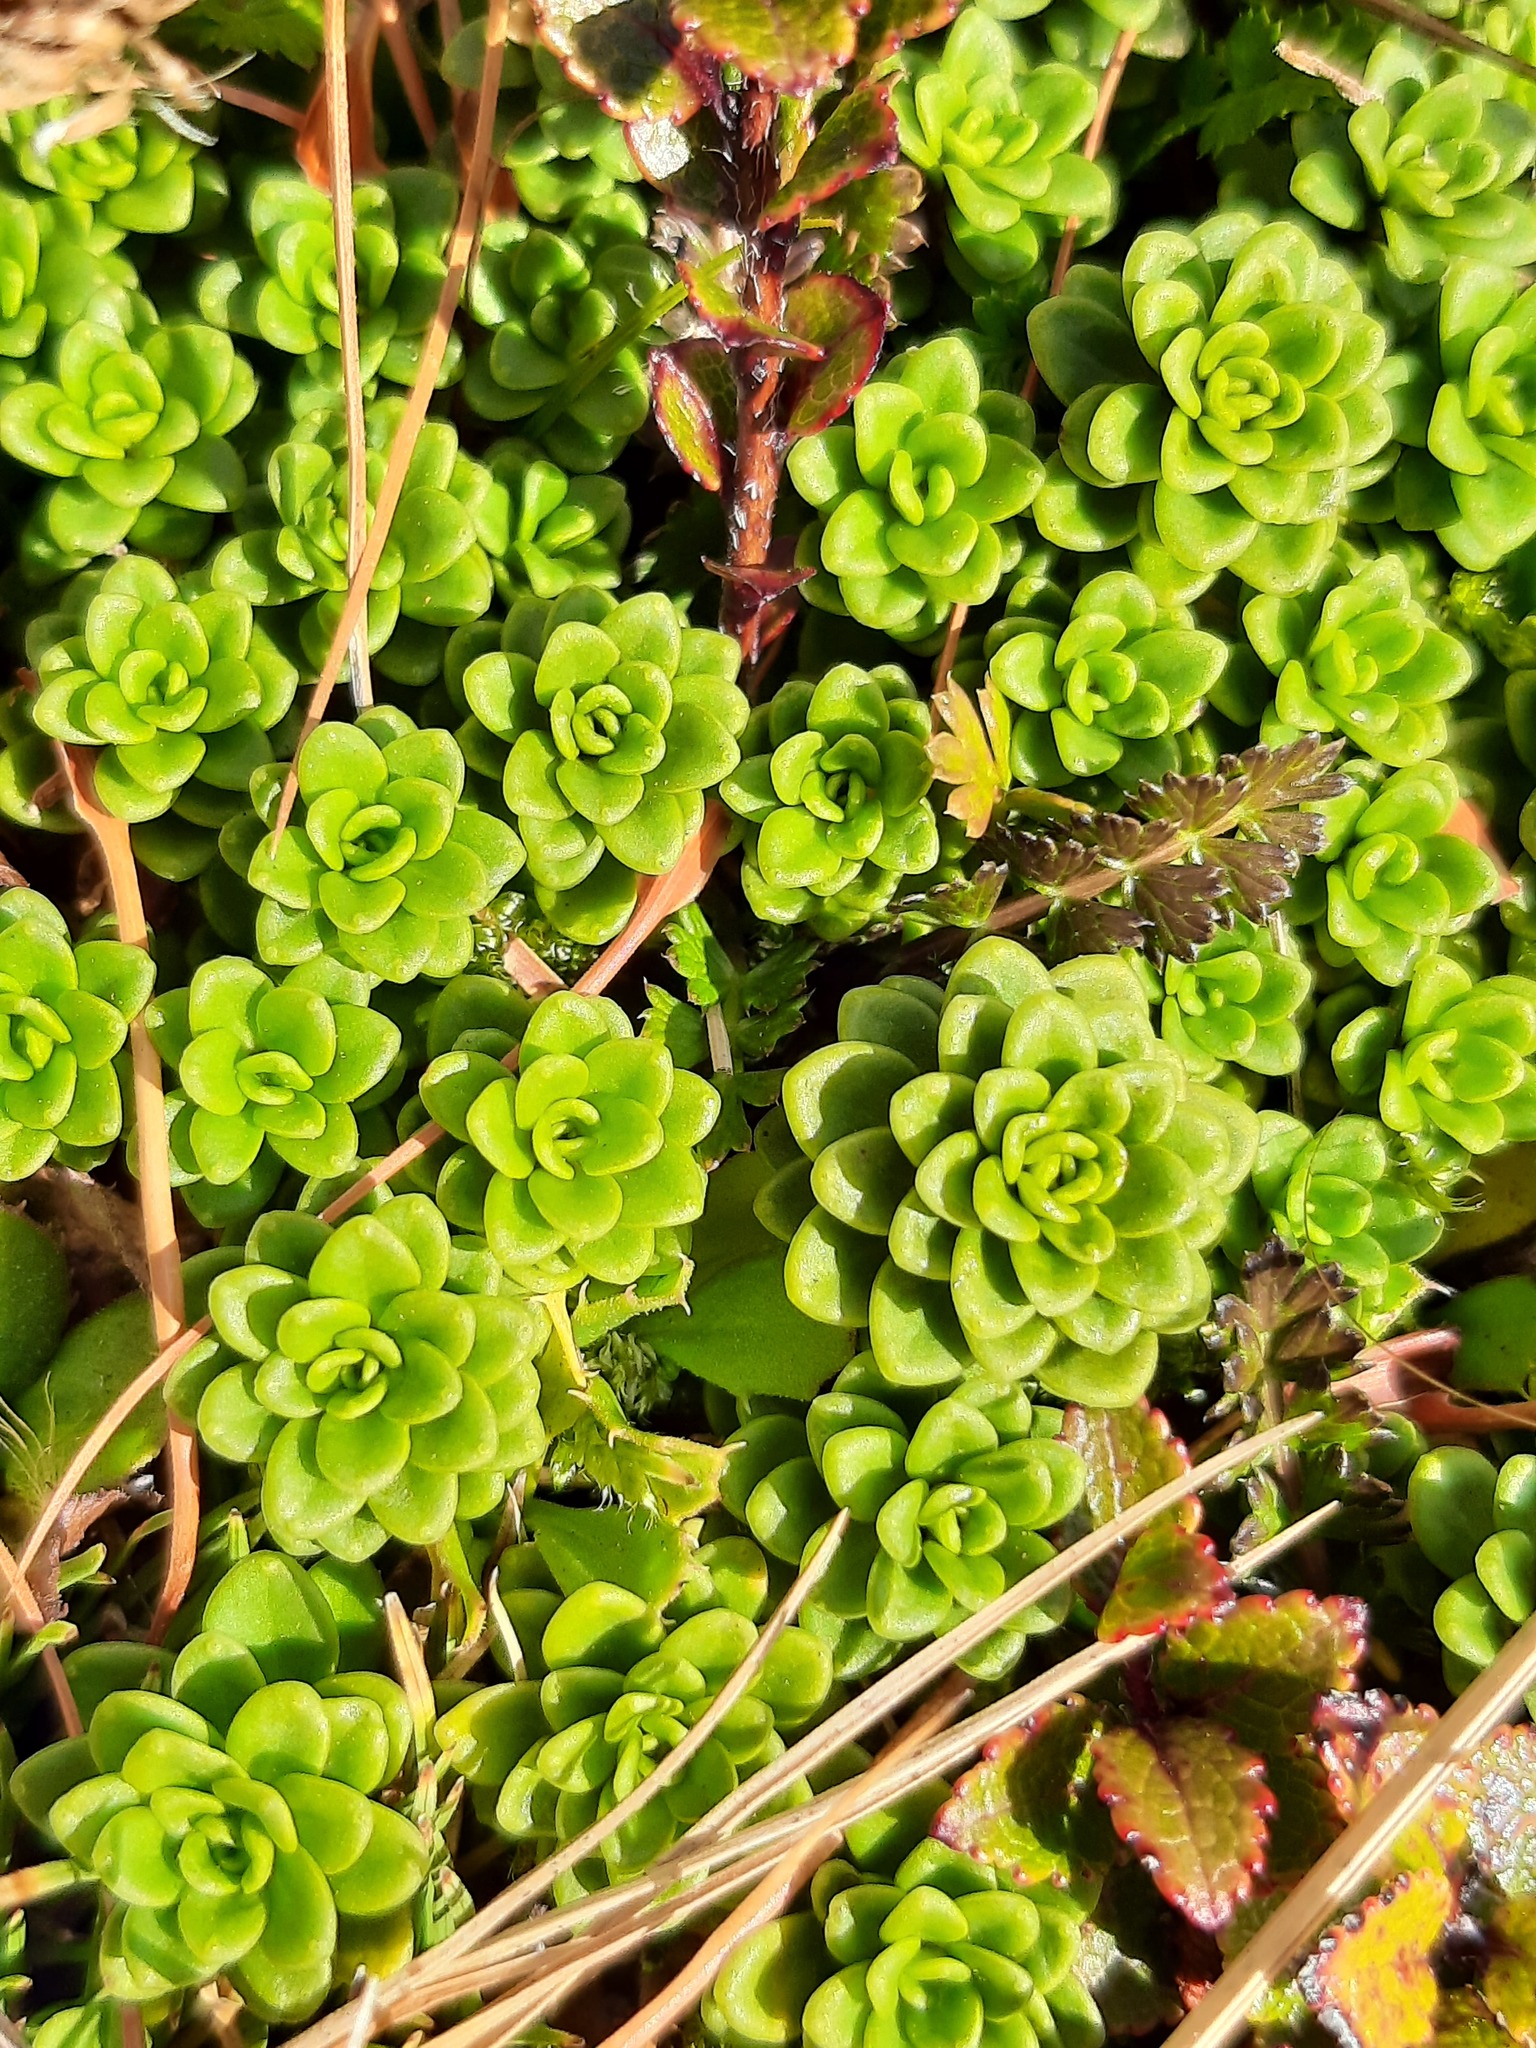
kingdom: Plantae
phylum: Tracheophyta
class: Magnoliopsida
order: Asterales
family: Stylidiaceae
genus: Forstera
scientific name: Forstera tenella
